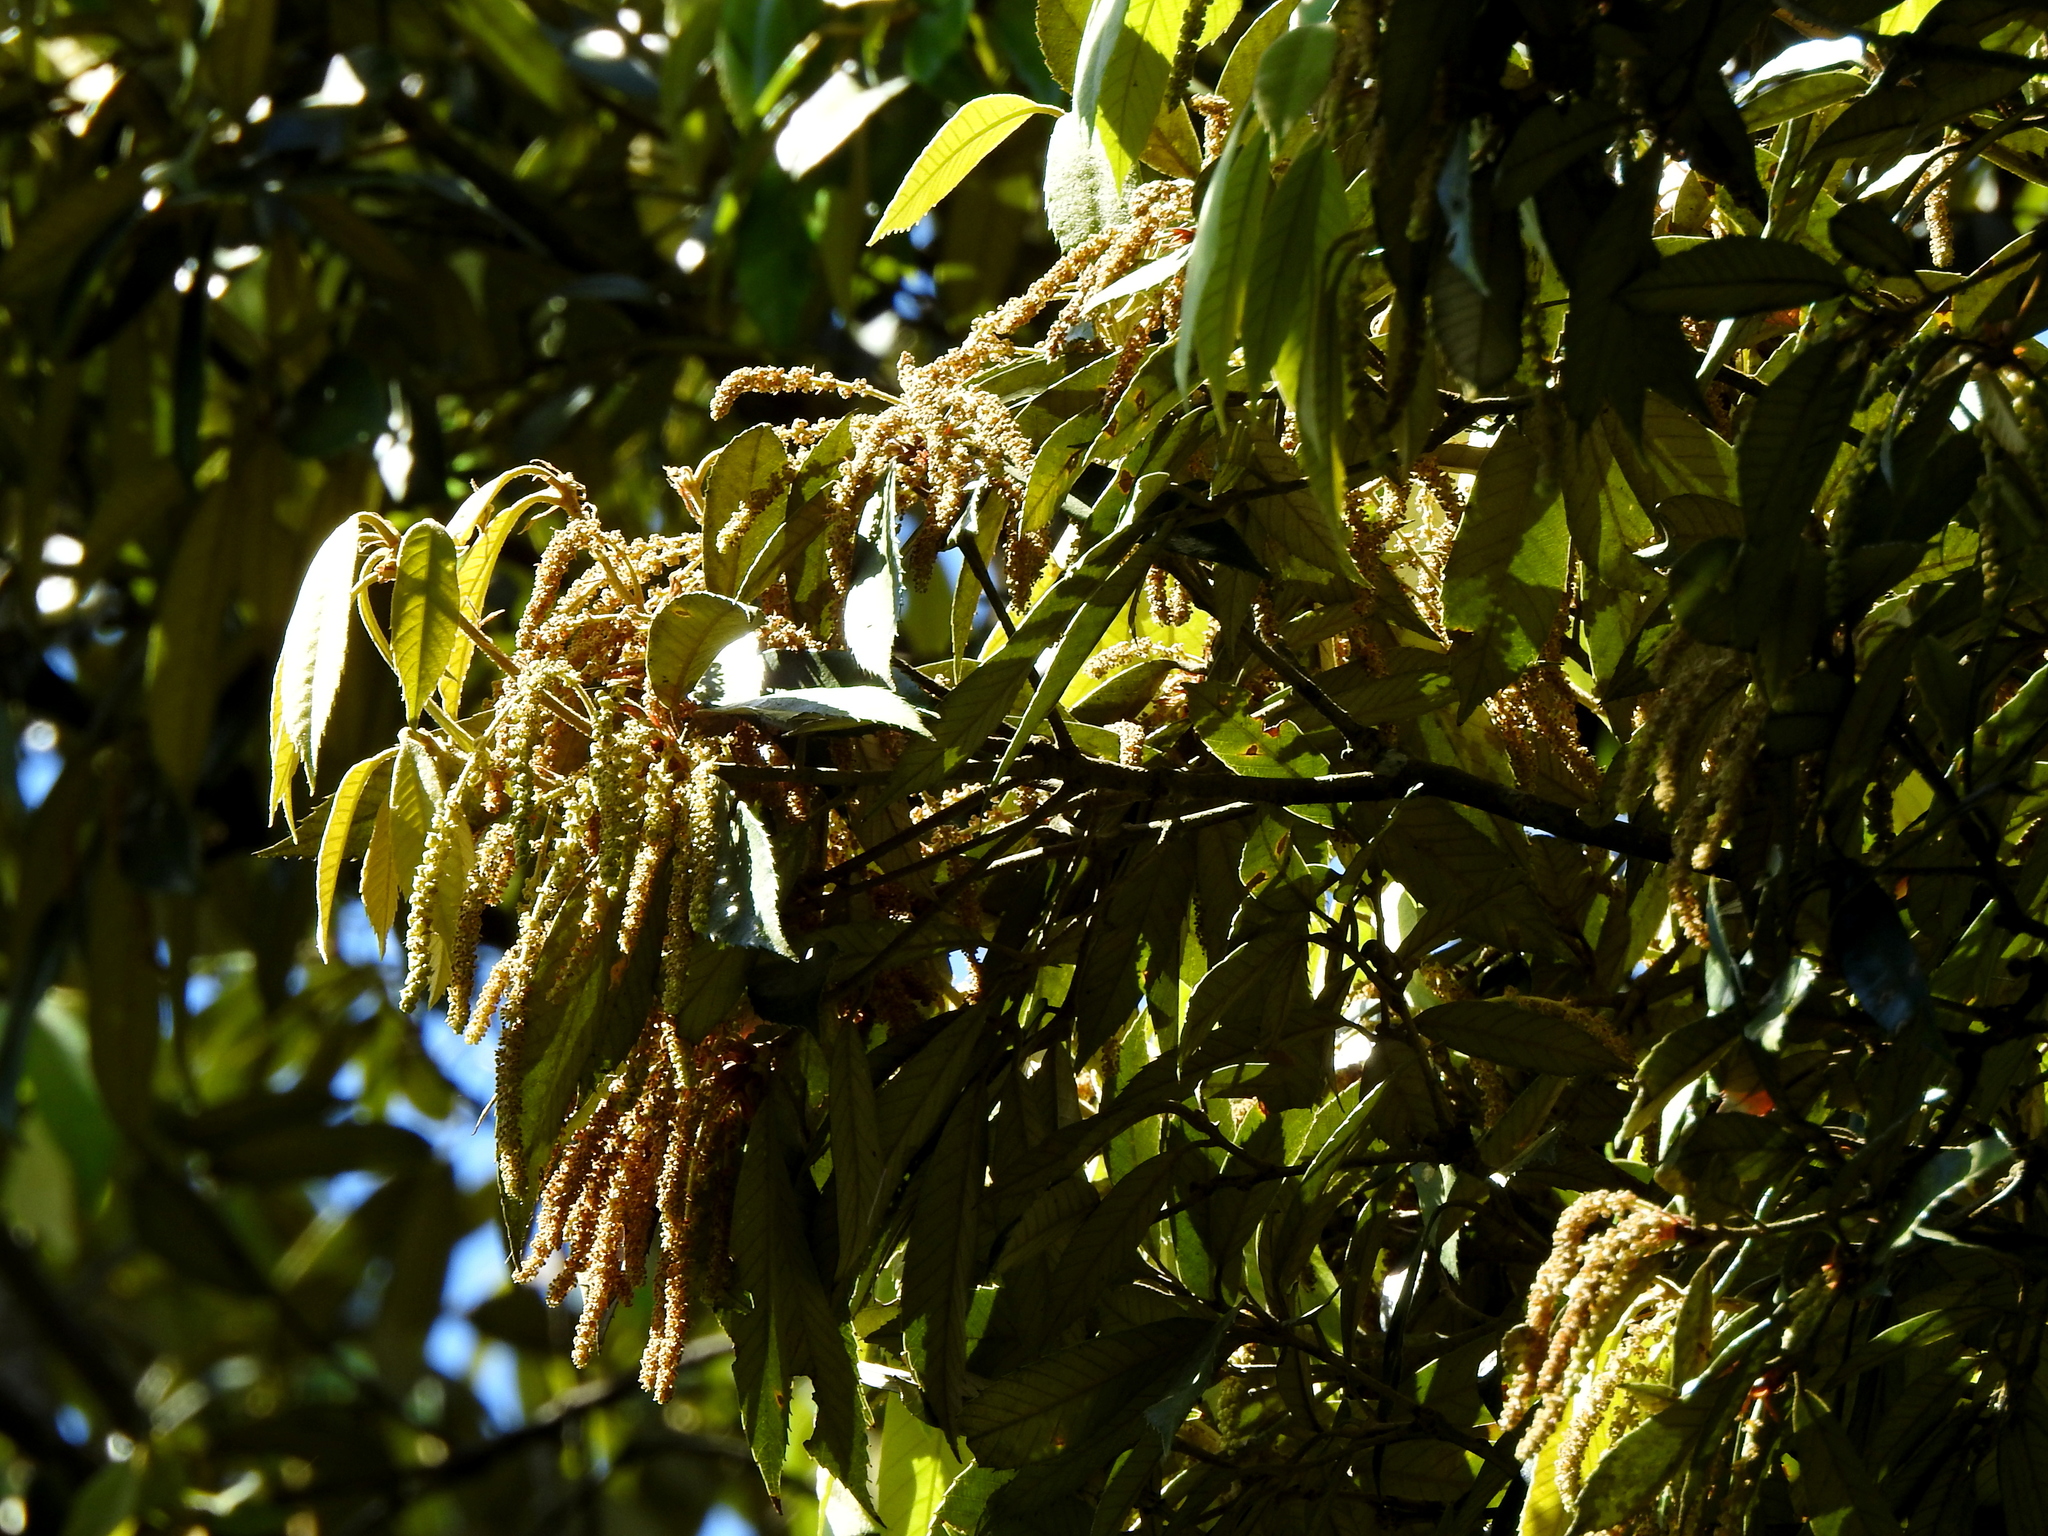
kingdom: Plantae
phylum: Tracheophyta
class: Magnoliopsida
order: Fagales
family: Fagaceae
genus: Quercus
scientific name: Quercus gilva
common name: Redbark oak
